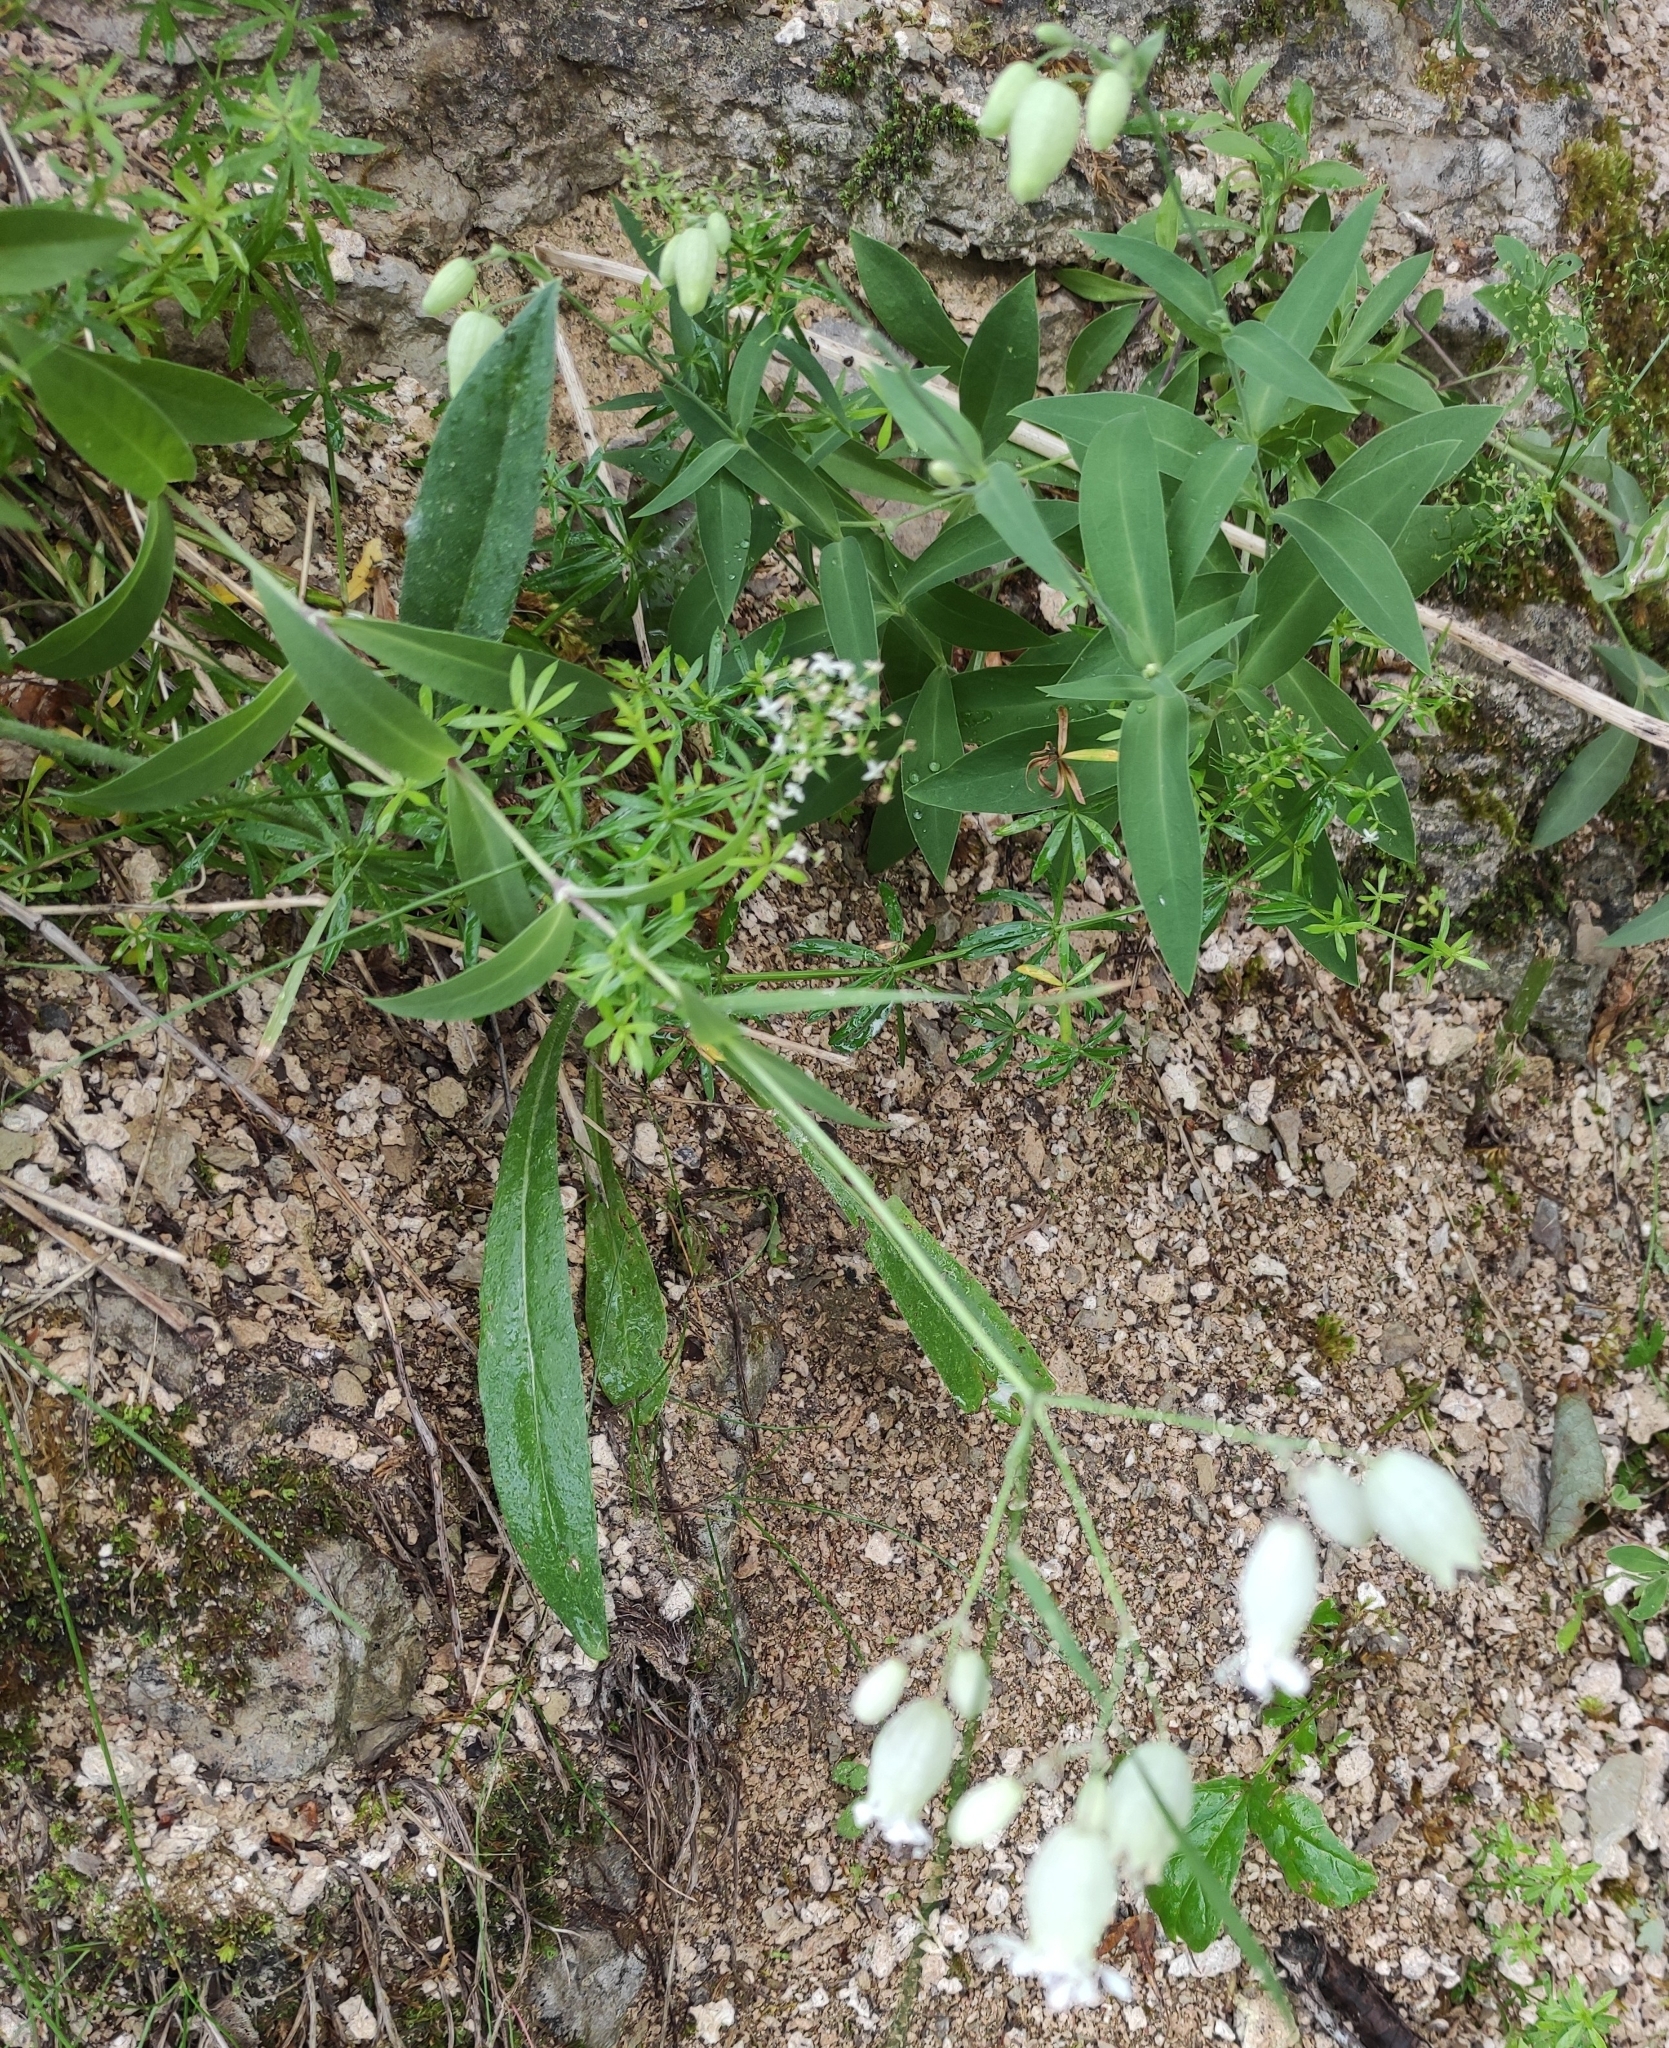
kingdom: Plantae
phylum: Tracheophyta
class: Magnoliopsida
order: Caryophyllales
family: Caryophyllaceae
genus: Silene
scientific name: Silene vulgaris
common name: Bladder campion
